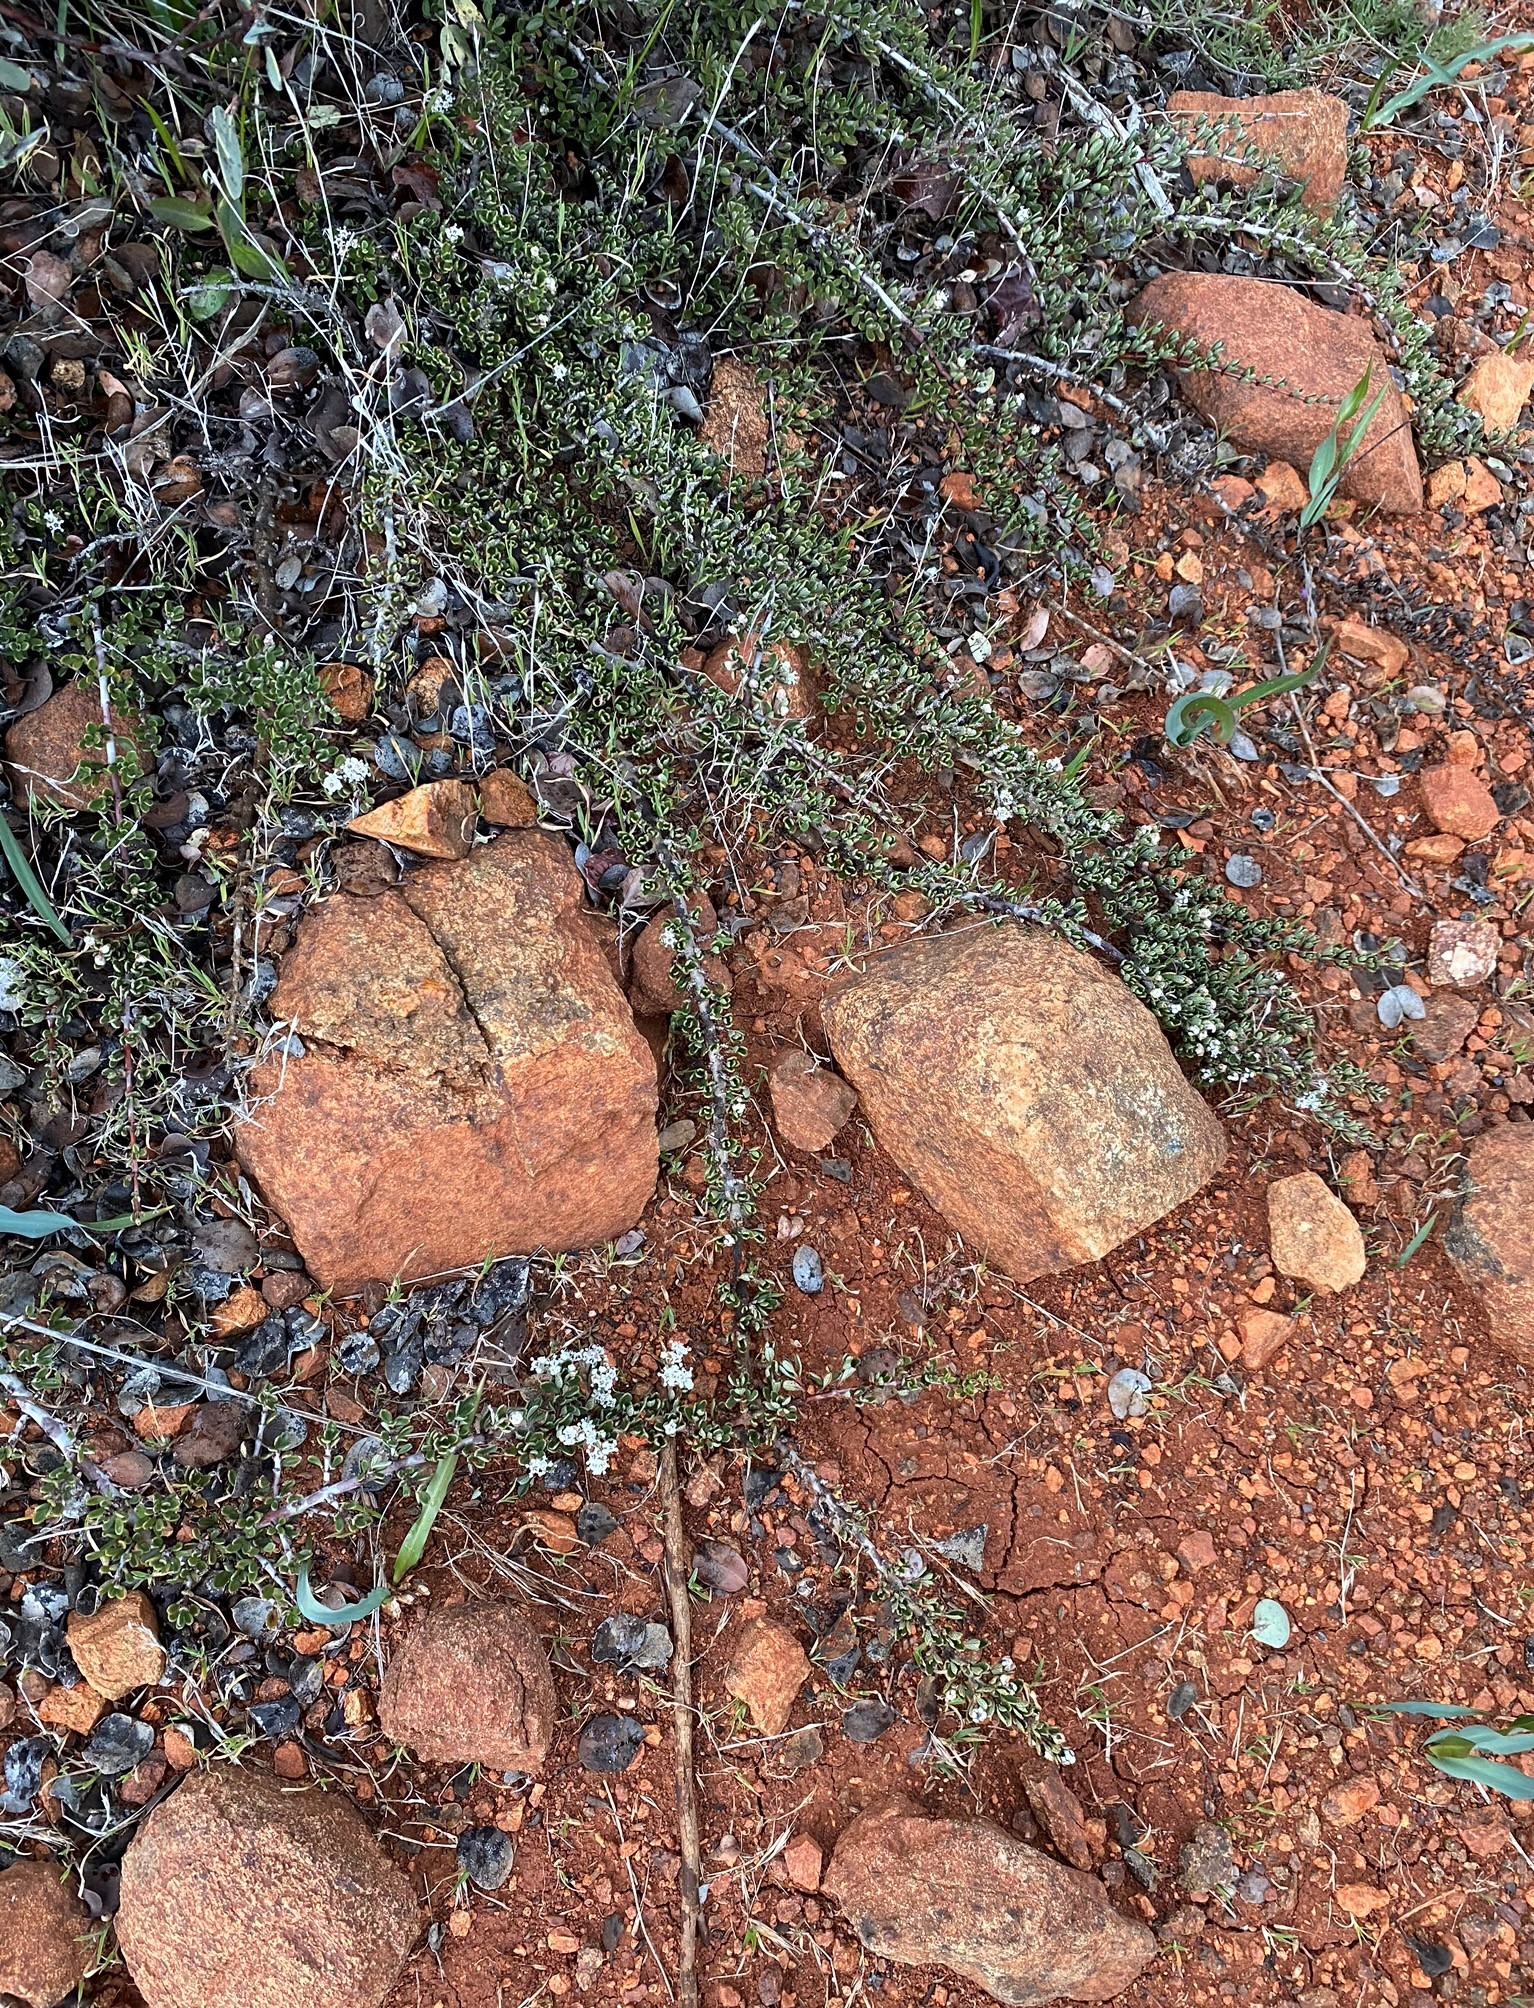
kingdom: Plantae
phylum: Tracheophyta
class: Magnoliopsida
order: Rosales
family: Rhamnaceae
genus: Ceanothus
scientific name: Ceanothus roderickii
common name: Pine hill ceanothus
